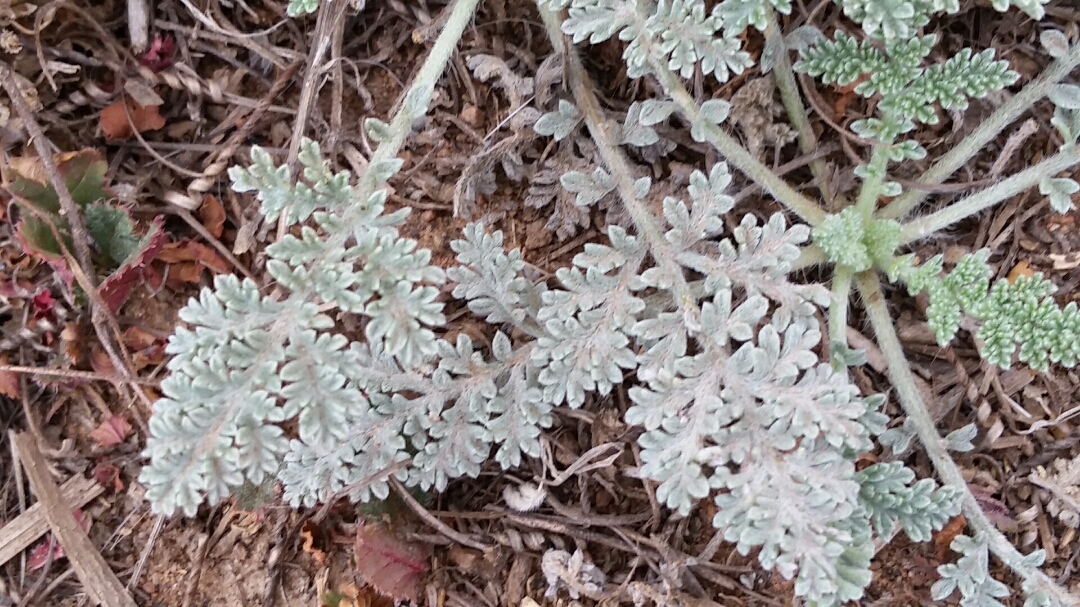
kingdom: Plantae
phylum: Tracheophyta
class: Magnoliopsida
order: Asterales
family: Asteraceae
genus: Ambrosia
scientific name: Ambrosia pumila
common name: San diego ambrosia
